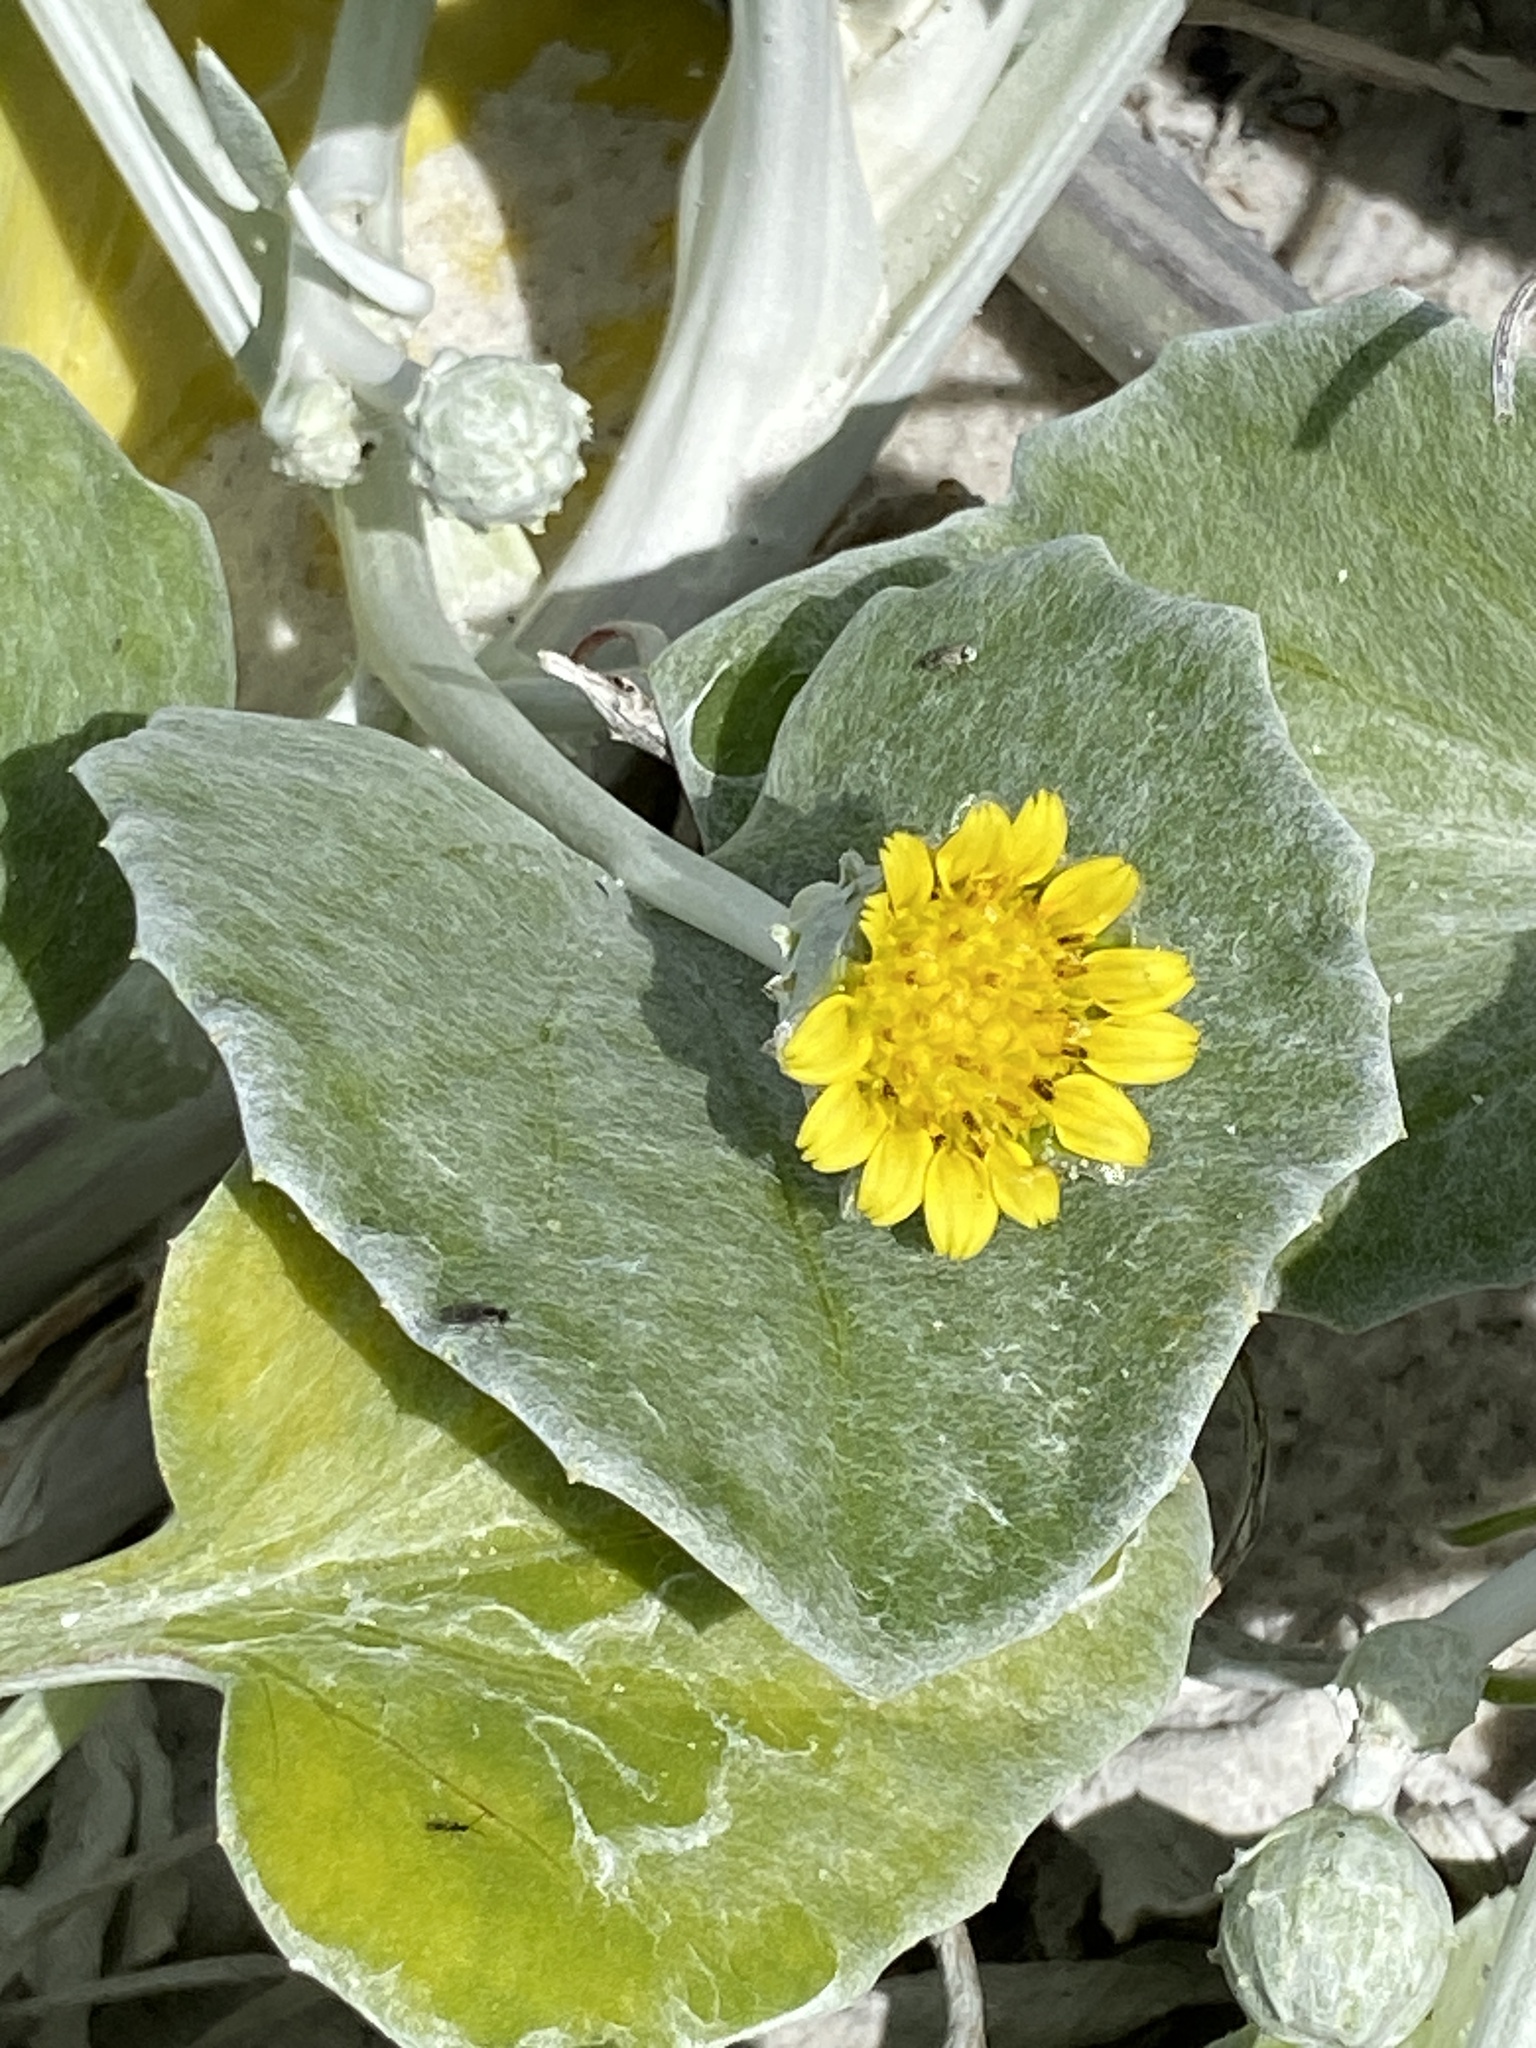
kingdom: Plantae
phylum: Tracheophyta
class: Magnoliopsida
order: Asterales
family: Asteraceae
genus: Arctotheca
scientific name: Arctotheca populifolia
